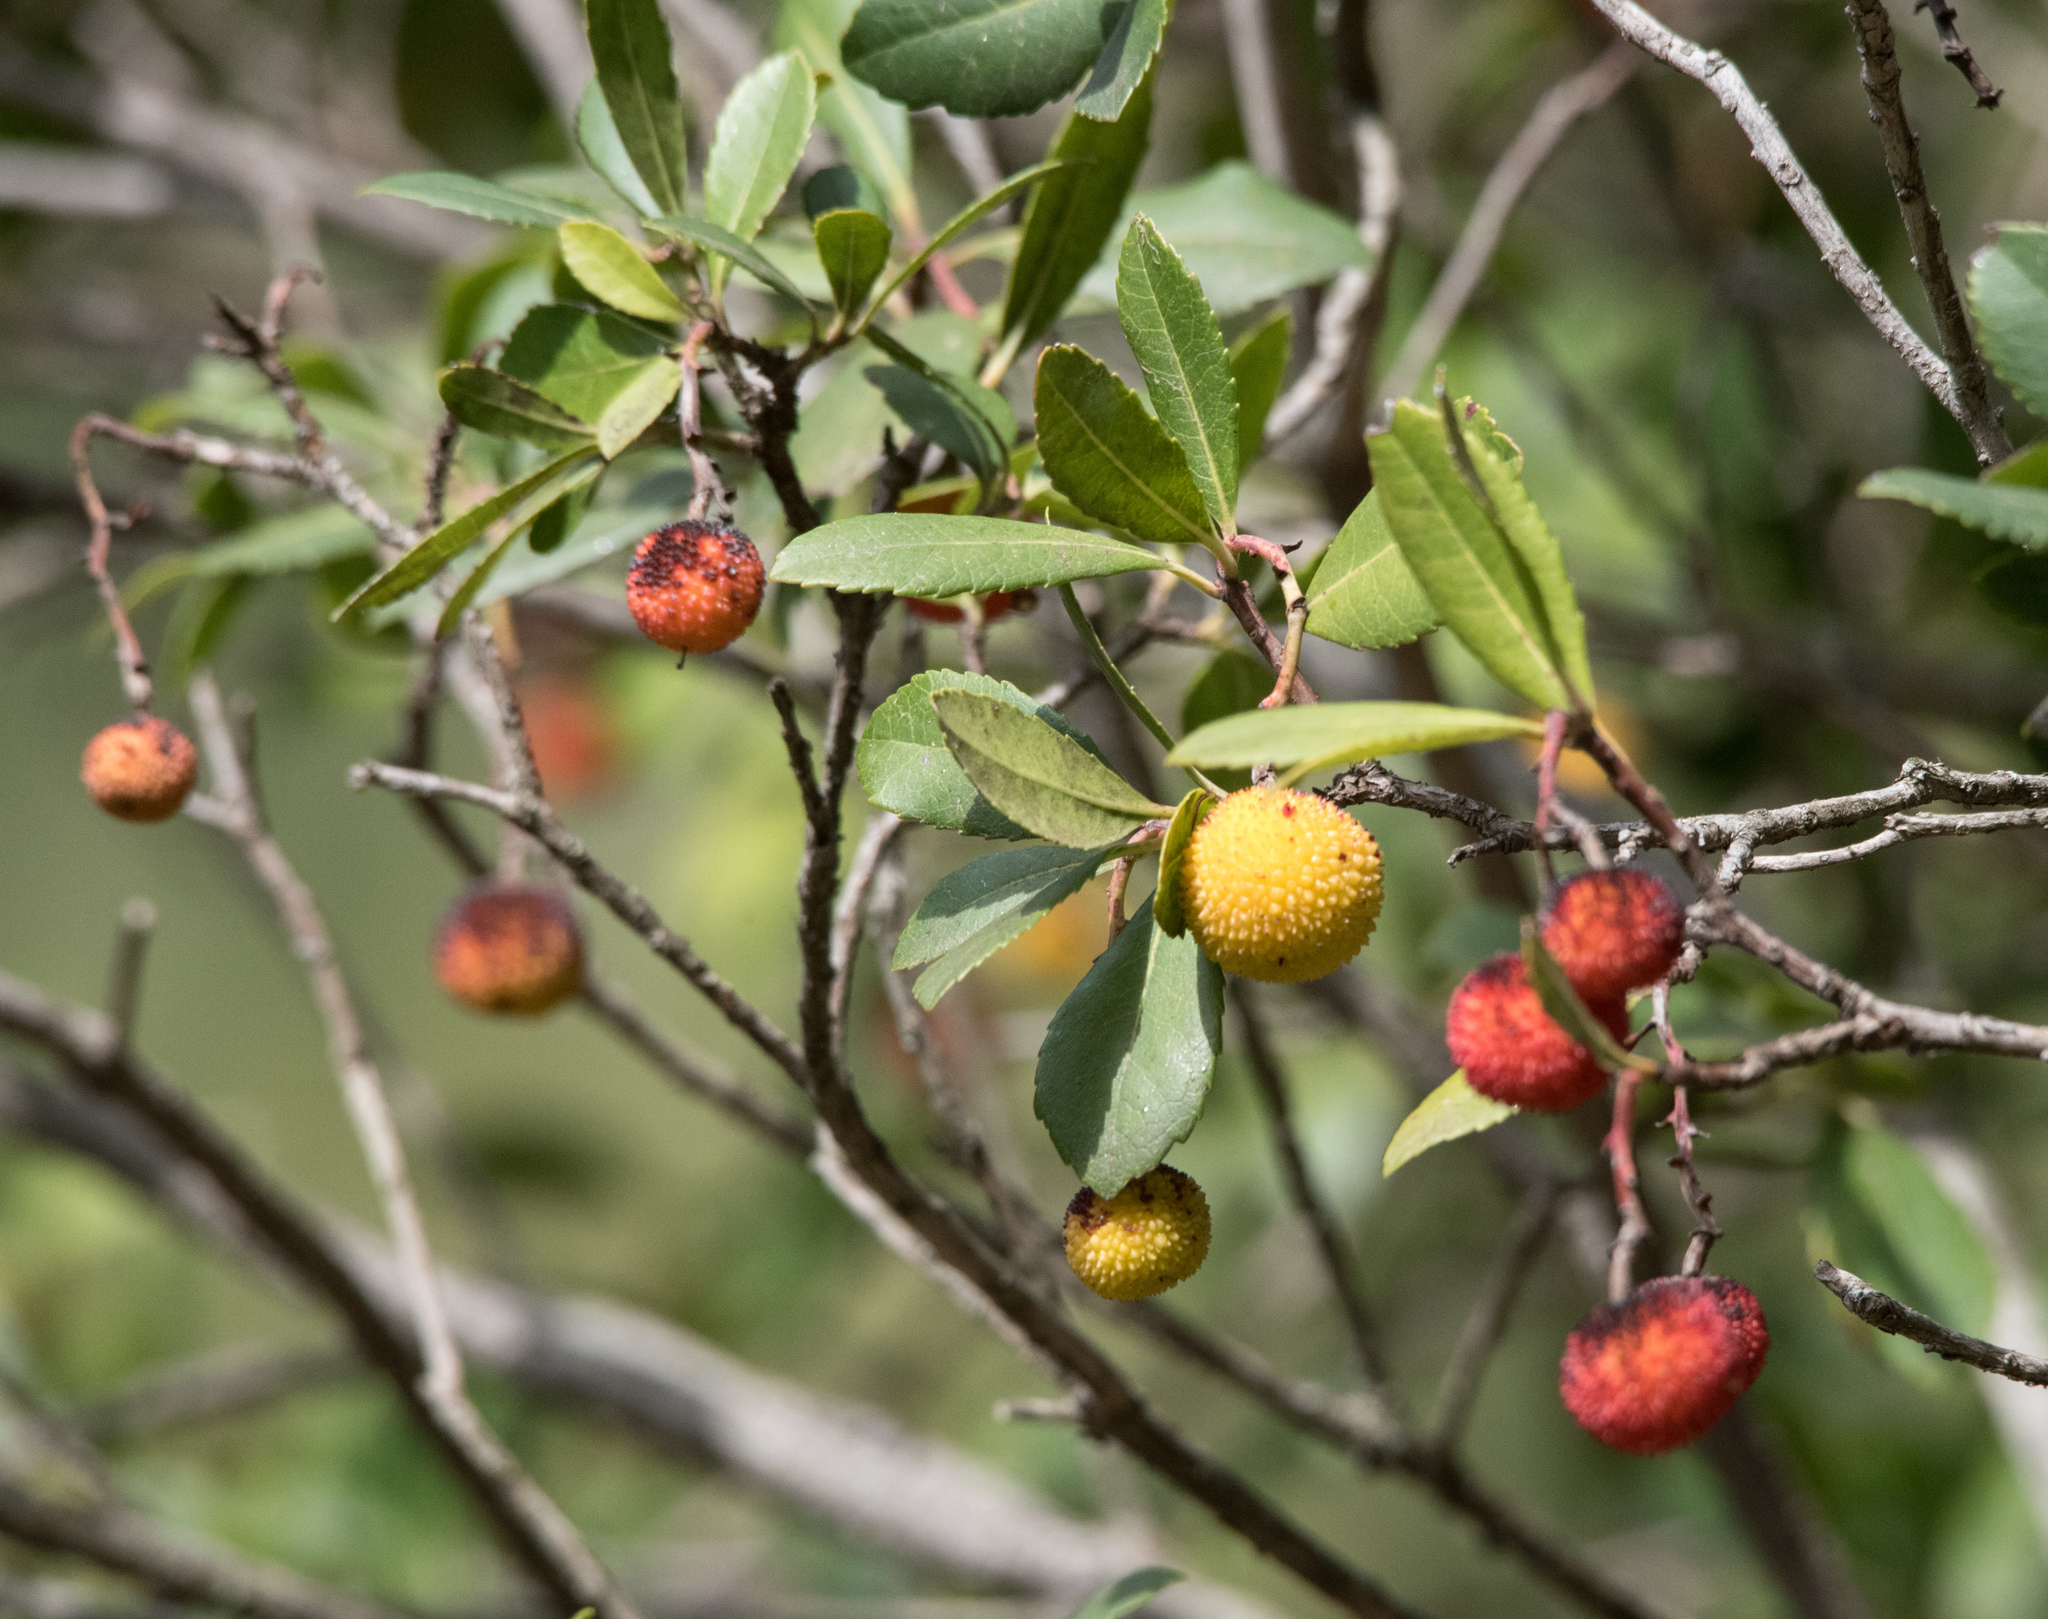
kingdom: Plantae
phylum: Tracheophyta
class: Magnoliopsida
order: Ericales
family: Ericaceae
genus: Arbutus
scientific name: Arbutus unedo
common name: Strawberry-tree
